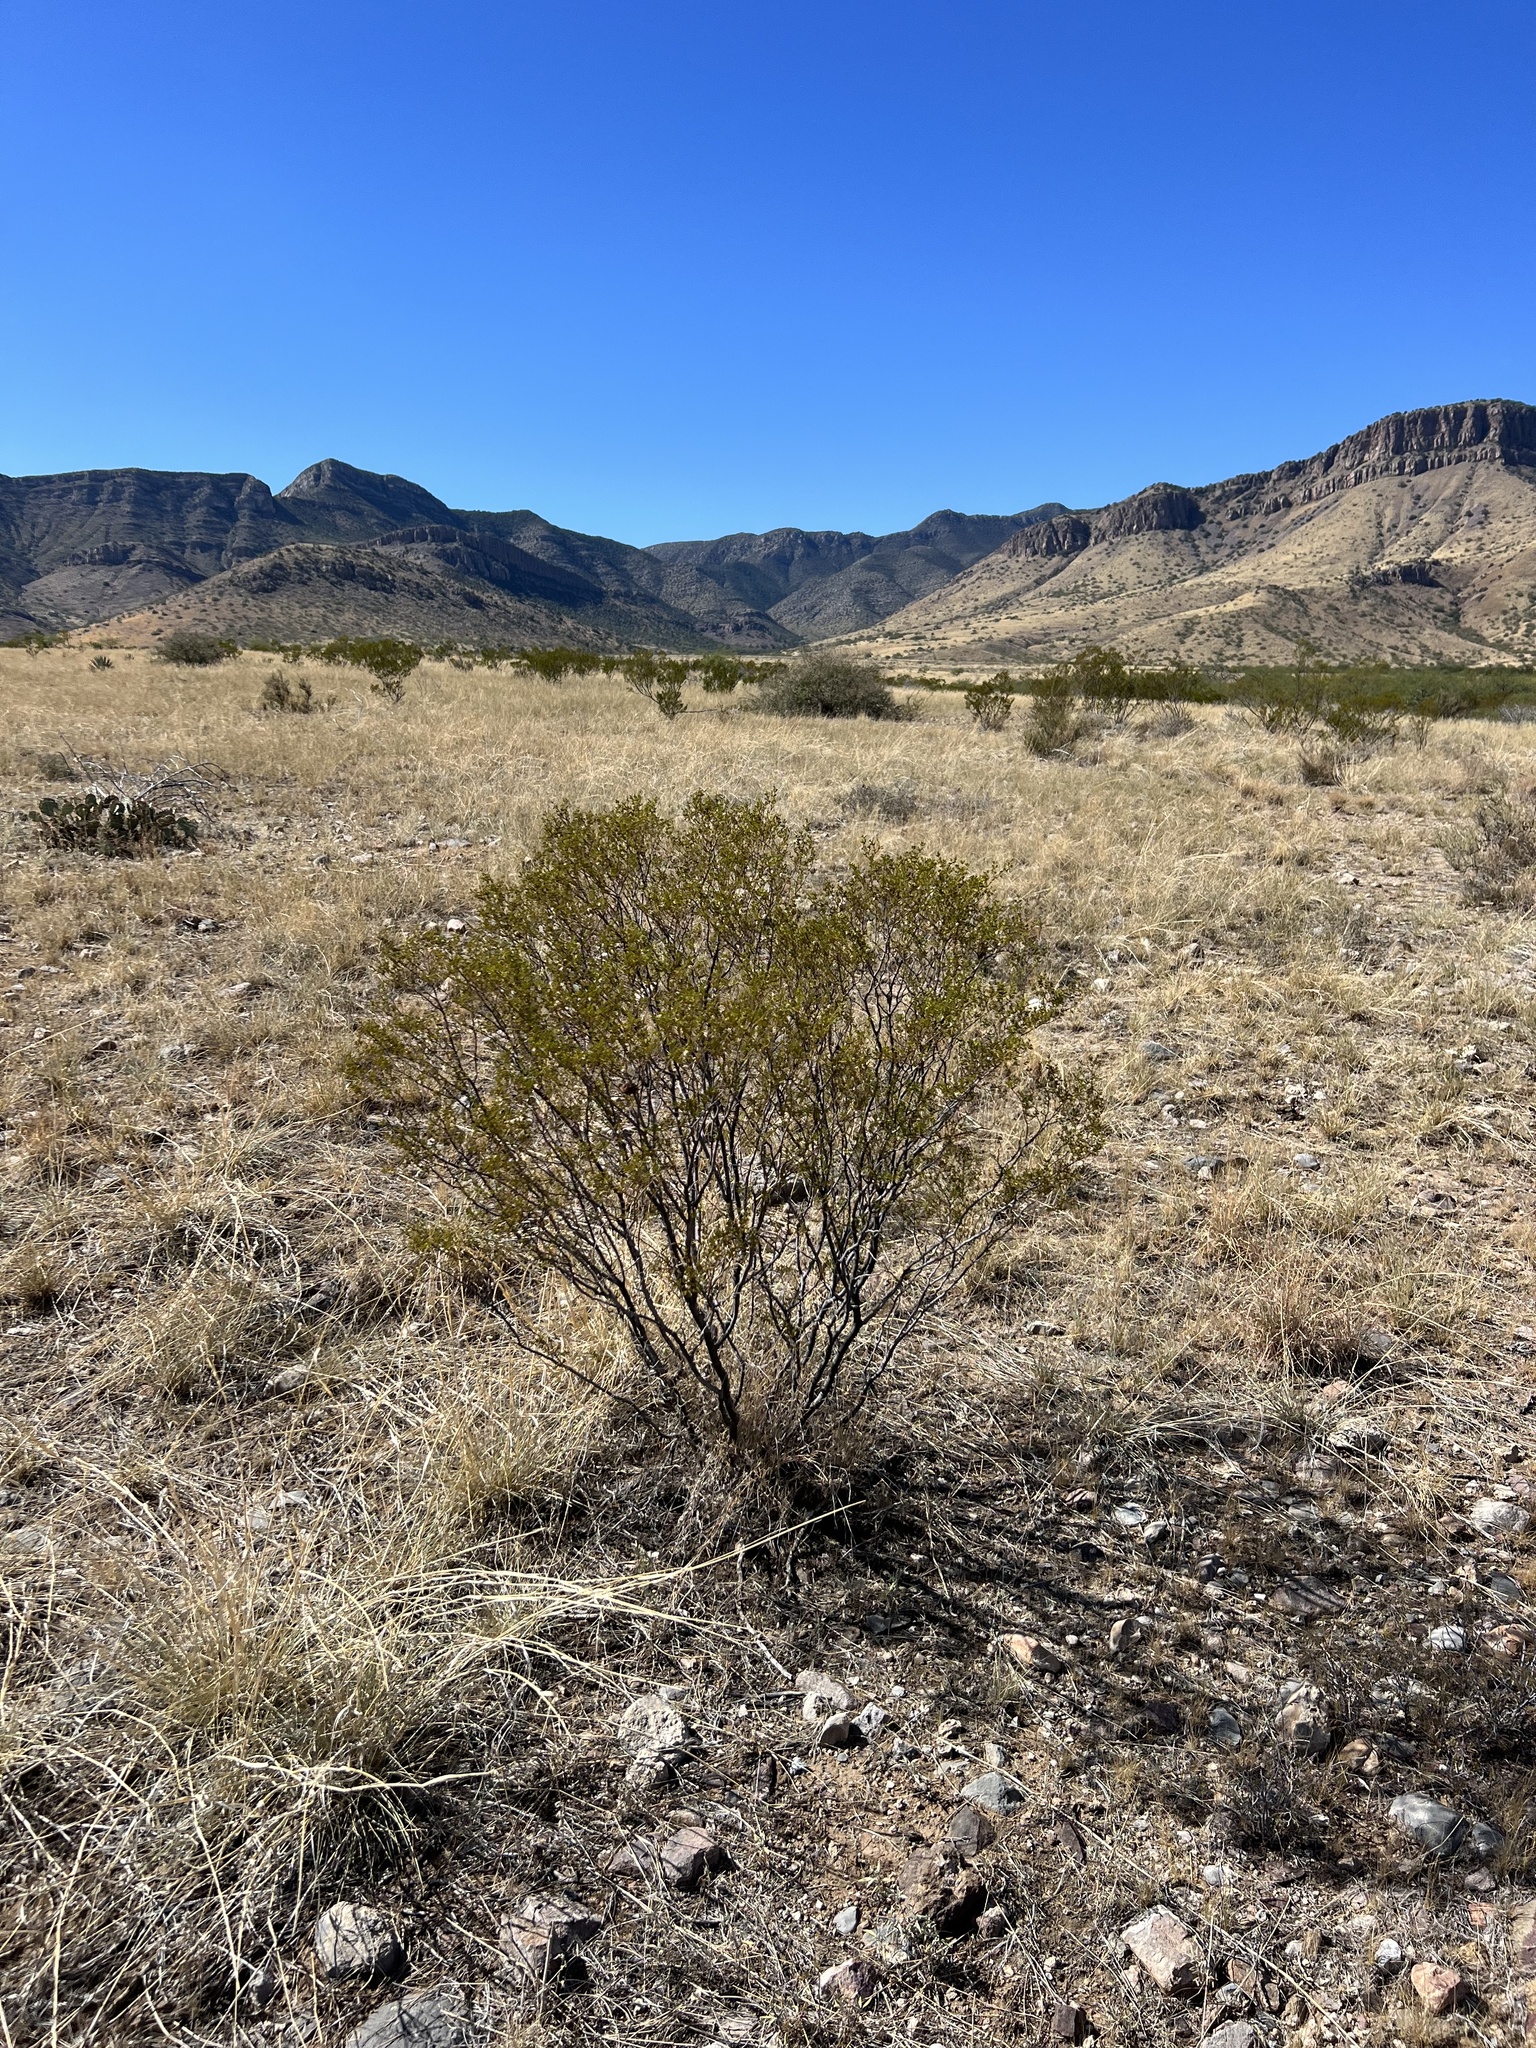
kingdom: Plantae
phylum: Tracheophyta
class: Magnoliopsida
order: Zygophyllales
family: Zygophyllaceae
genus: Larrea
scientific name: Larrea tridentata
